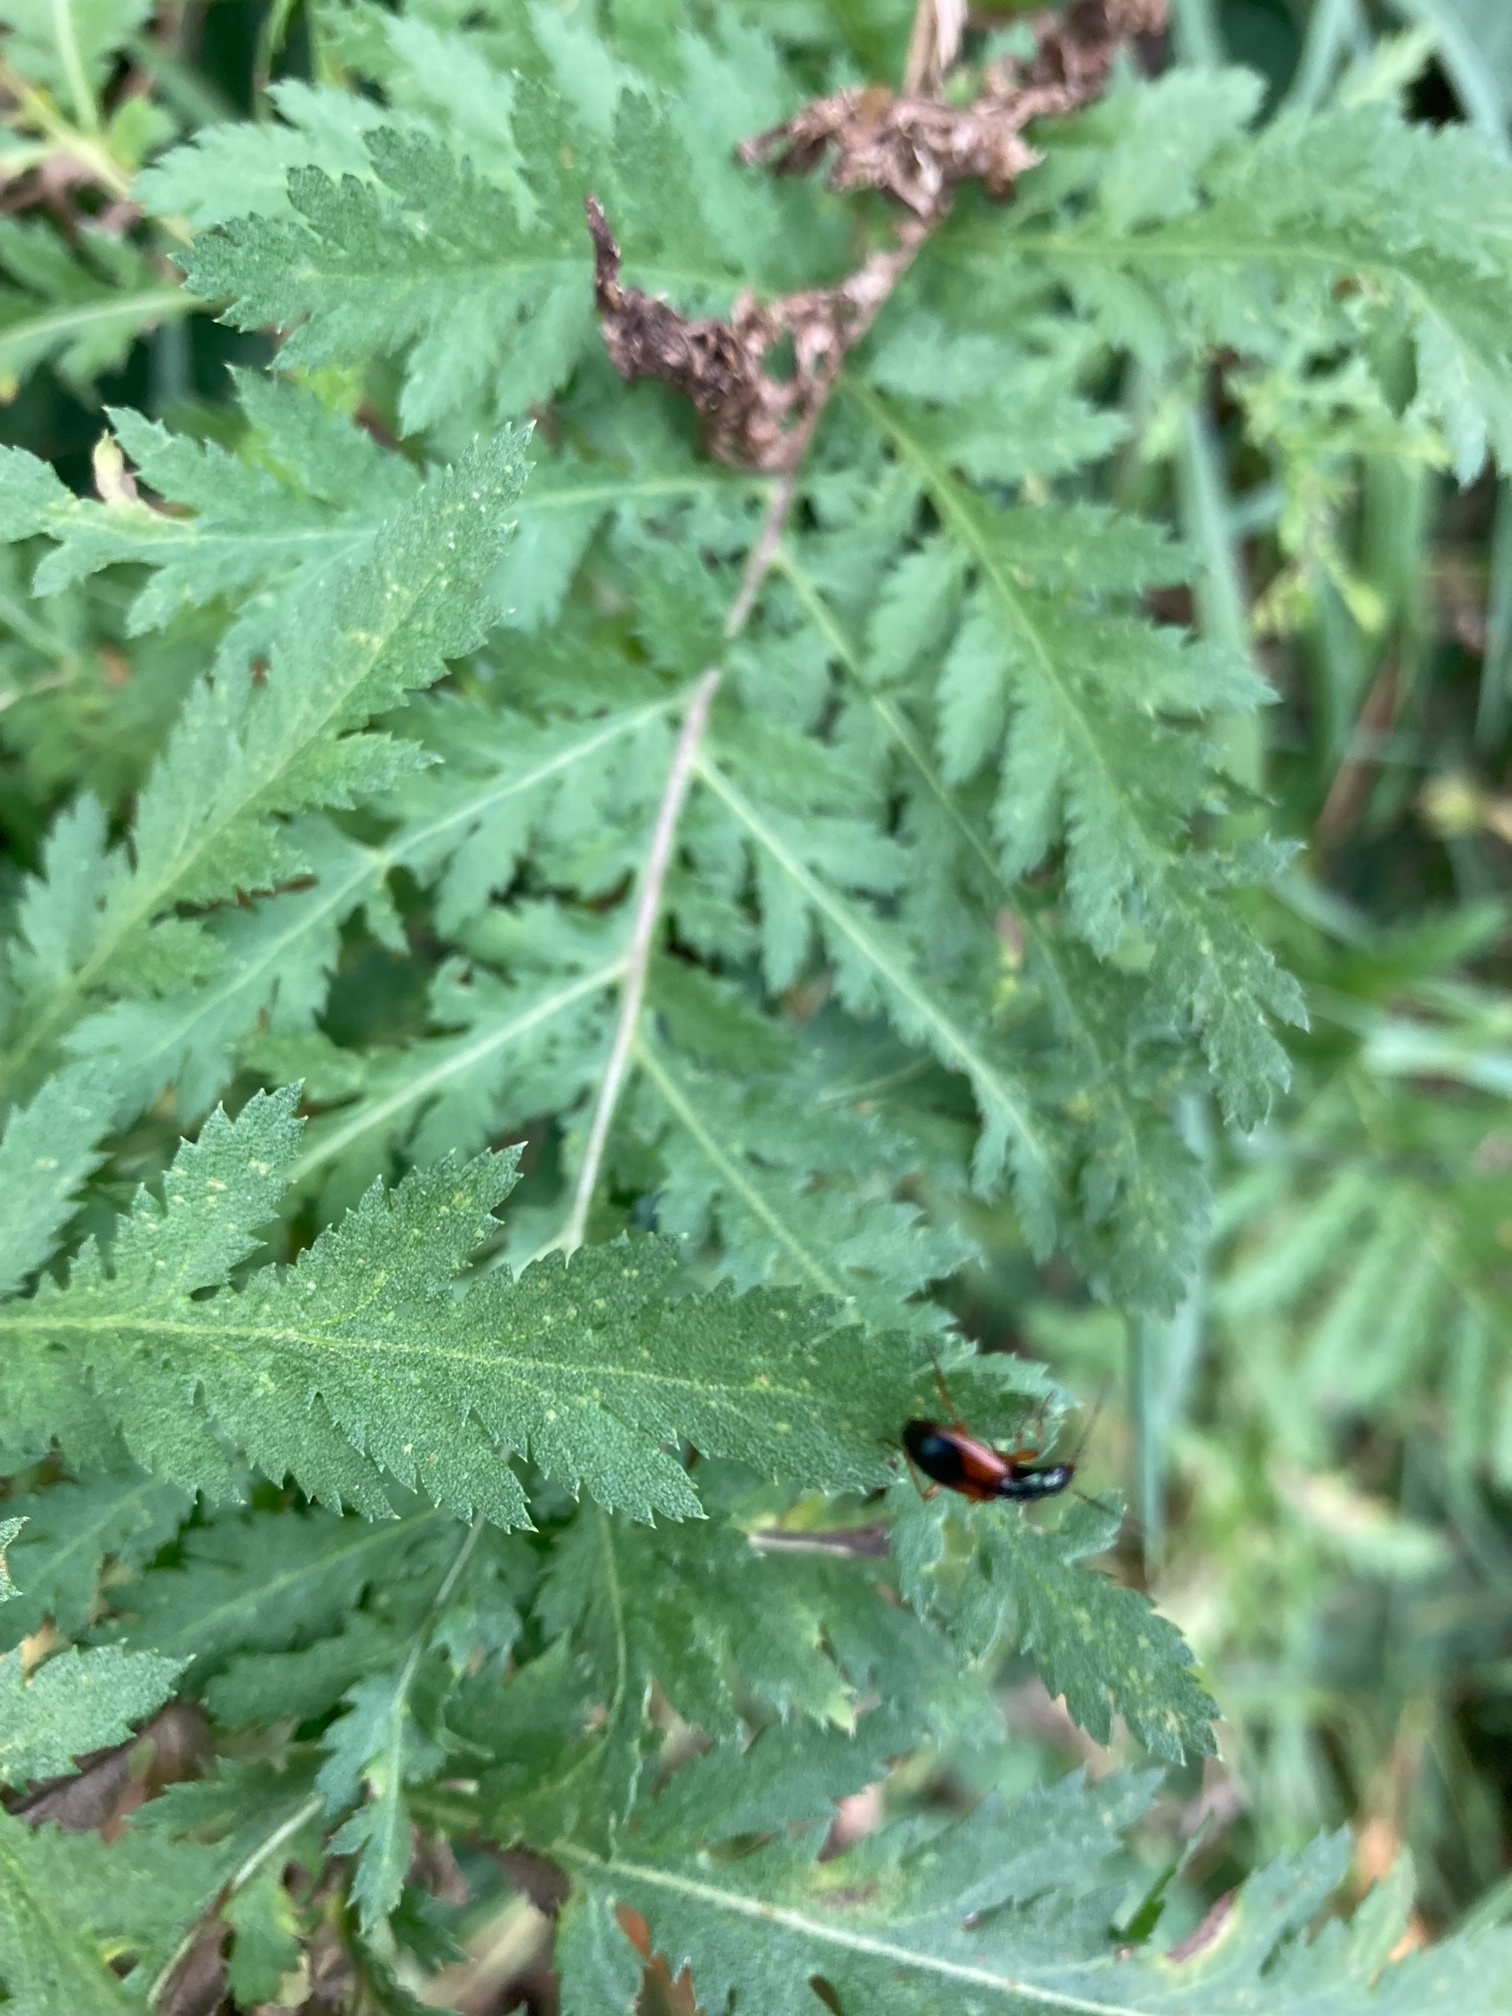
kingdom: Animalia
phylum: Arthropoda
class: Insecta
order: Coleoptera
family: Carabidae
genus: Anchomenus
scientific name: Anchomenus dorsalis
